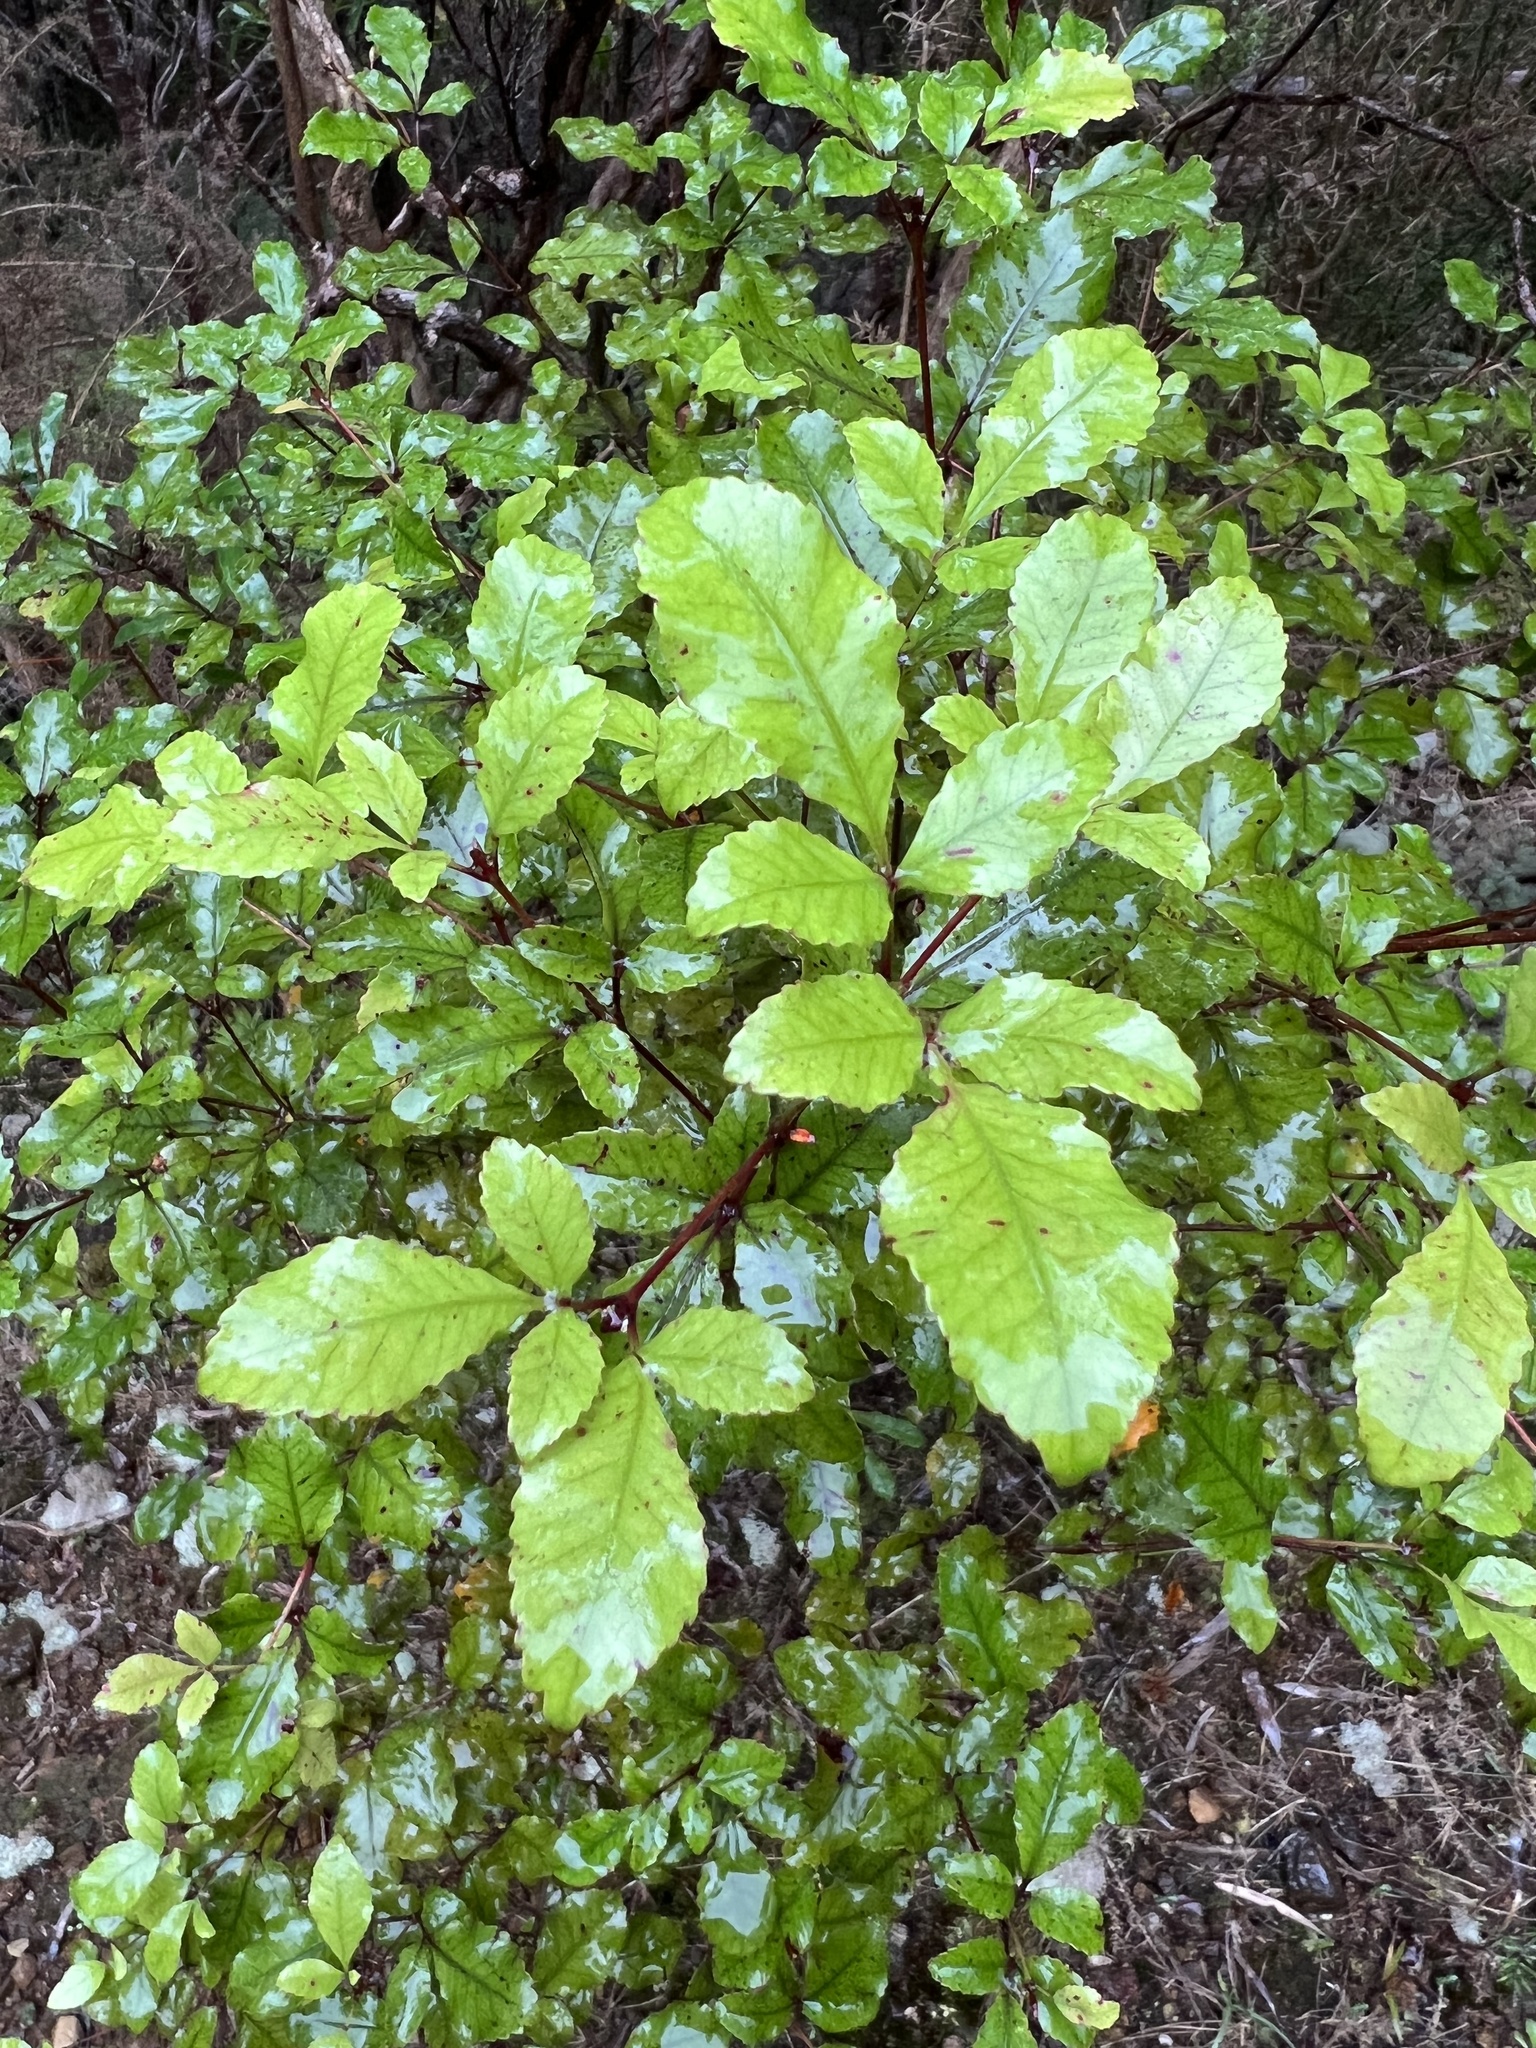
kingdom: Plantae
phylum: Tracheophyta
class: Magnoliopsida
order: Oxalidales
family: Cunoniaceae
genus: Pterophylla
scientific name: Pterophylla racemosa
